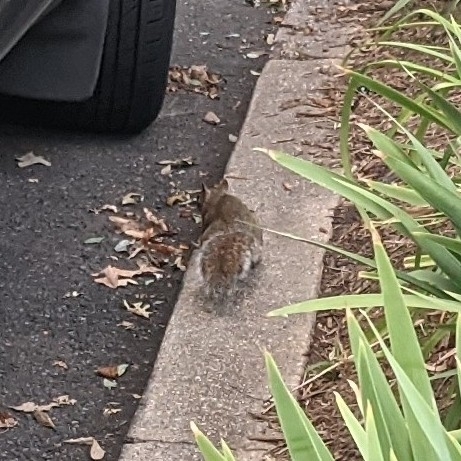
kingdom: Animalia
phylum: Chordata
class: Mammalia
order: Rodentia
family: Sciuridae
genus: Sciurus
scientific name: Sciurus carolinensis
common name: Eastern gray squirrel
